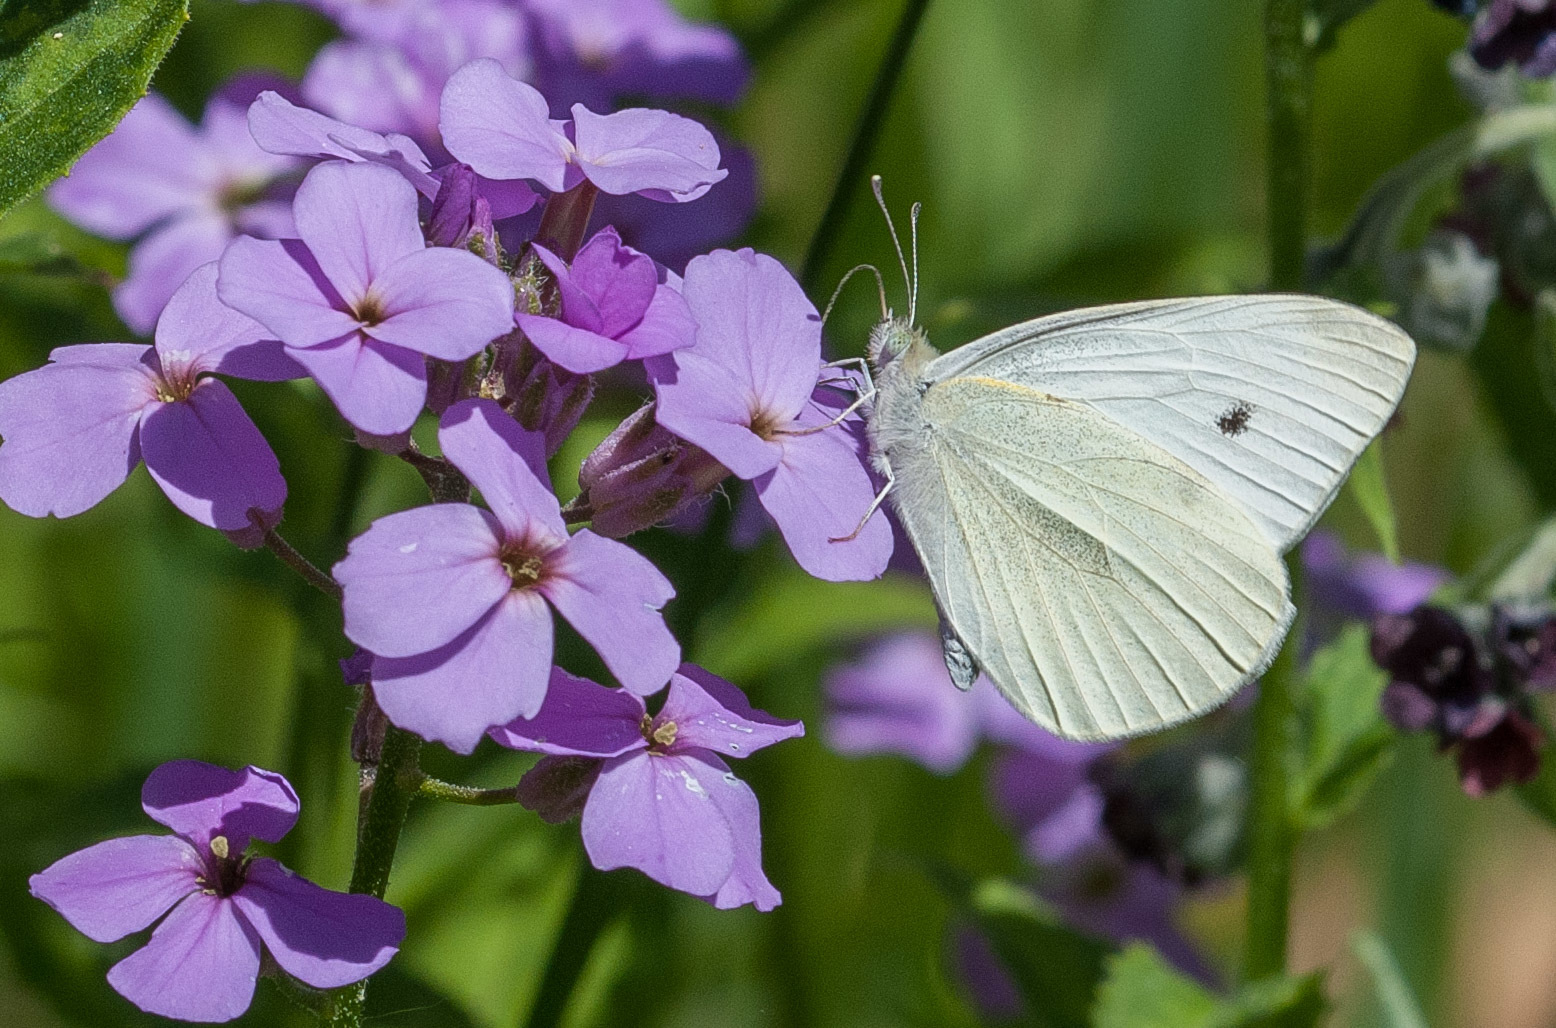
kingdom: Animalia
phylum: Arthropoda
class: Insecta
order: Lepidoptera
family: Pieridae
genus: Pieris
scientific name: Pieris rapae
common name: Small white
